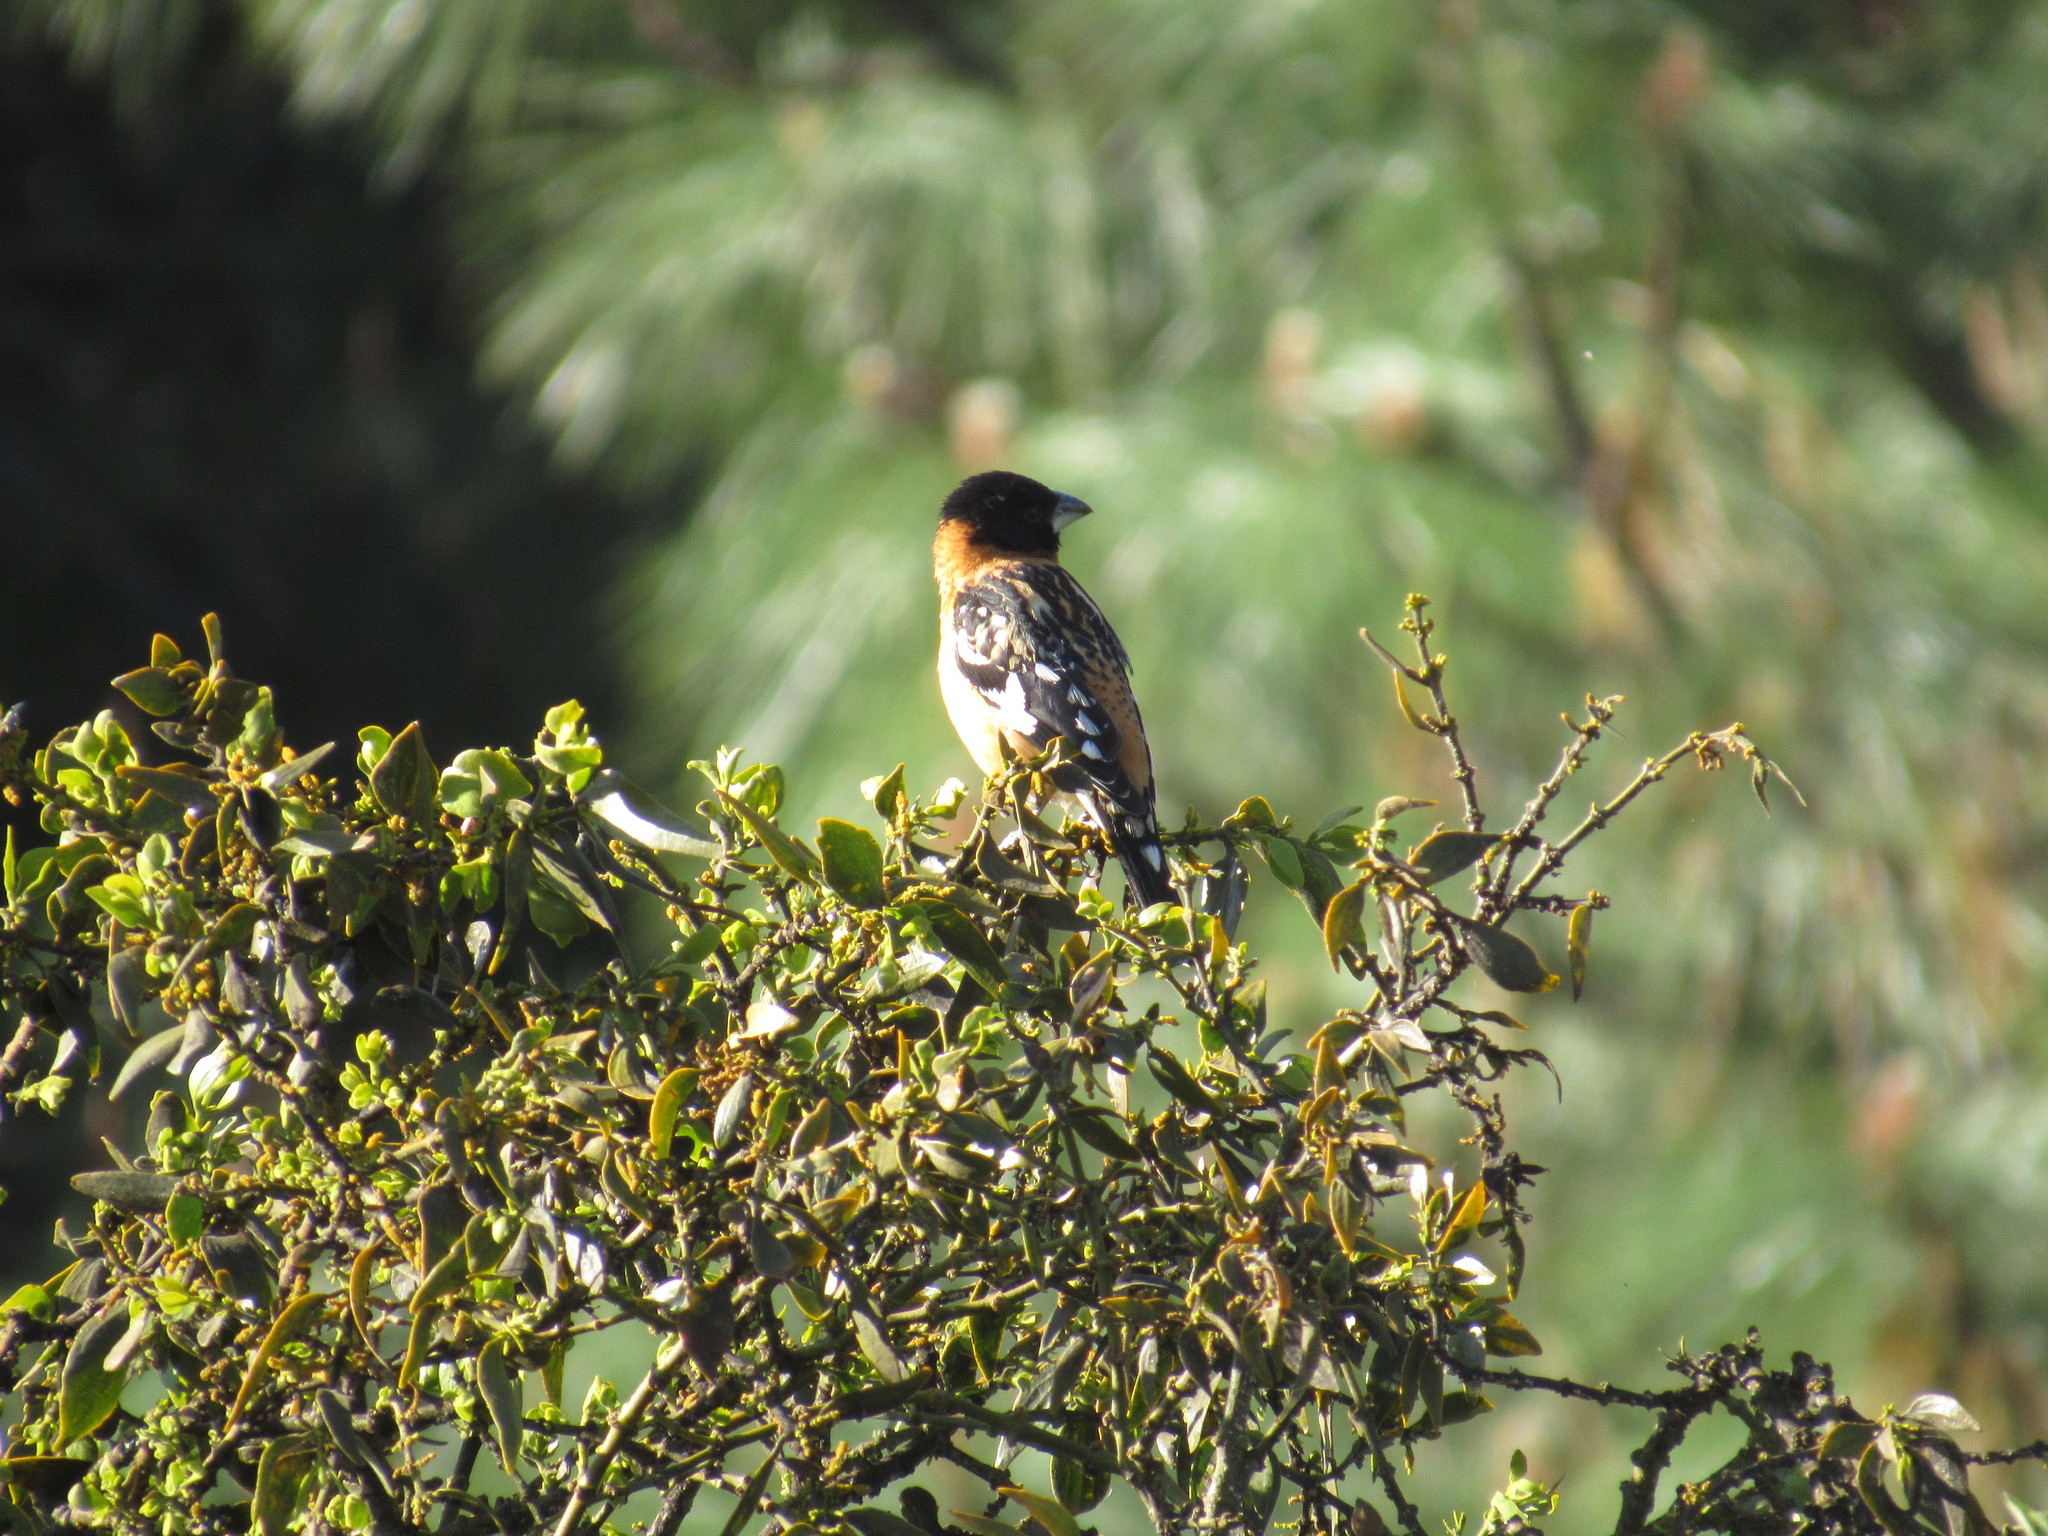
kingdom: Animalia
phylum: Chordata
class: Aves
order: Passeriformes
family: Cardinalidae
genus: Pheucticus
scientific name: Pheucticus melanocephalus
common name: Black-headed grosbeak
